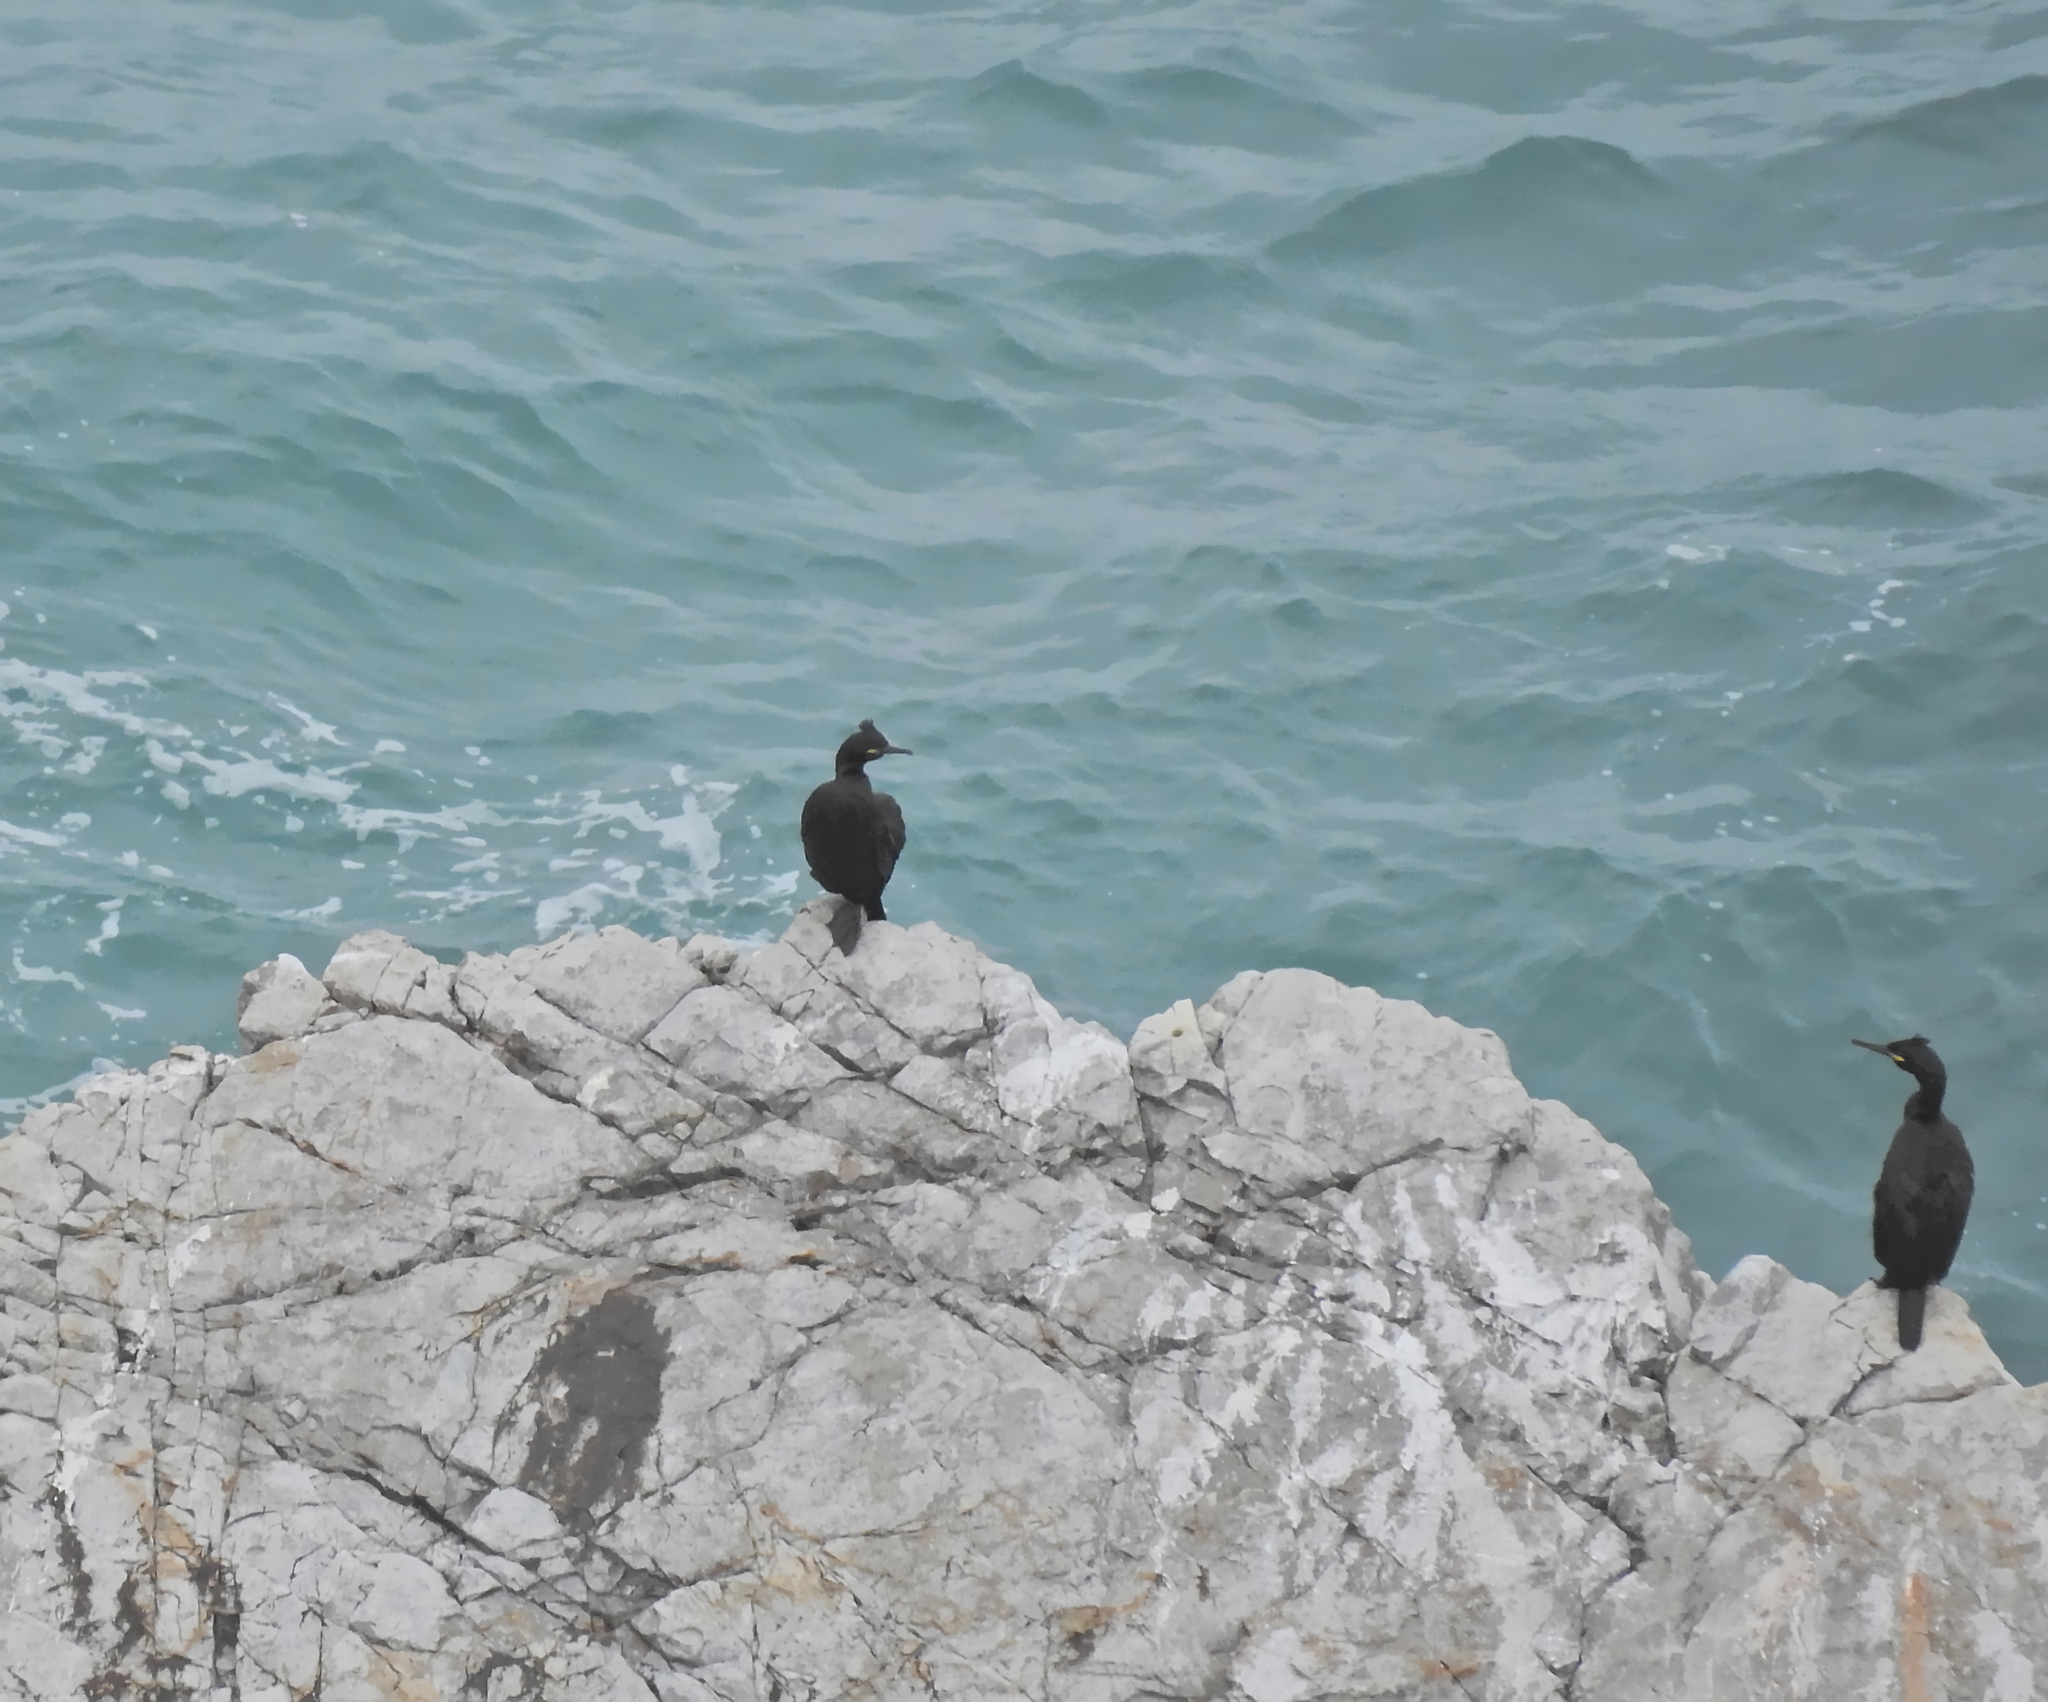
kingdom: Animalia
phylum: Chordata
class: Aves
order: Suliformes
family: Phalacrocoracidae
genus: Phalacrocorax
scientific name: Phalacrocorax aristotelis
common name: European shag
